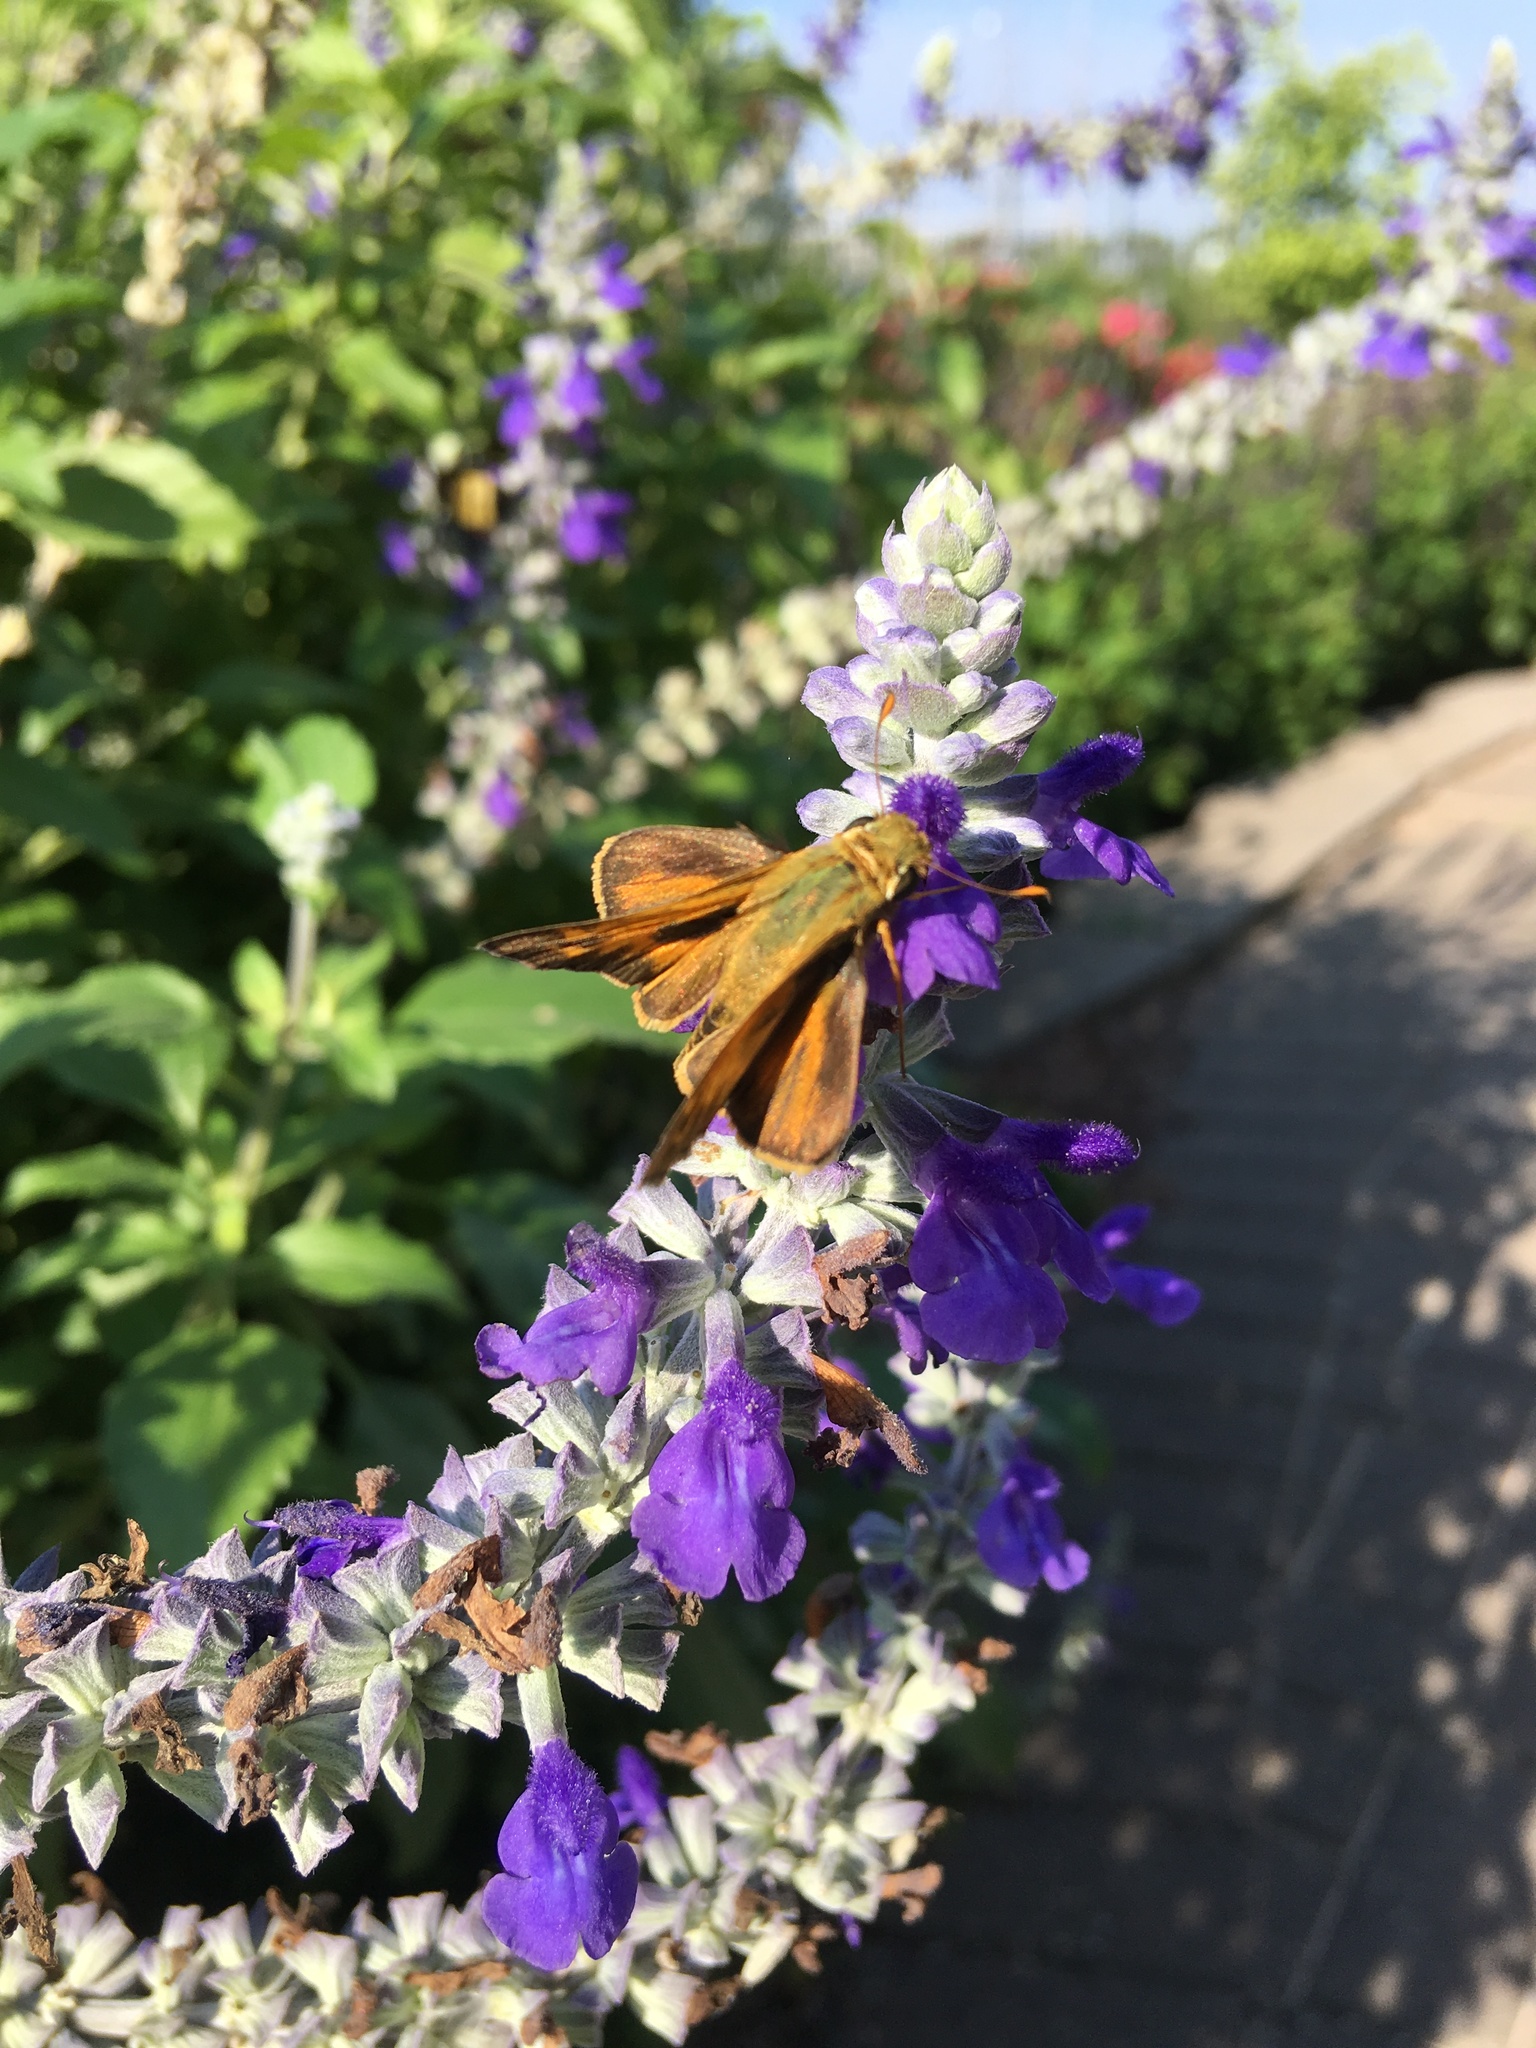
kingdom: Animalia
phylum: Arthropoda
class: Insecta
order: Lepidoptera
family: Hesperiidae
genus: Atalopedes
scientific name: Atalopedes
